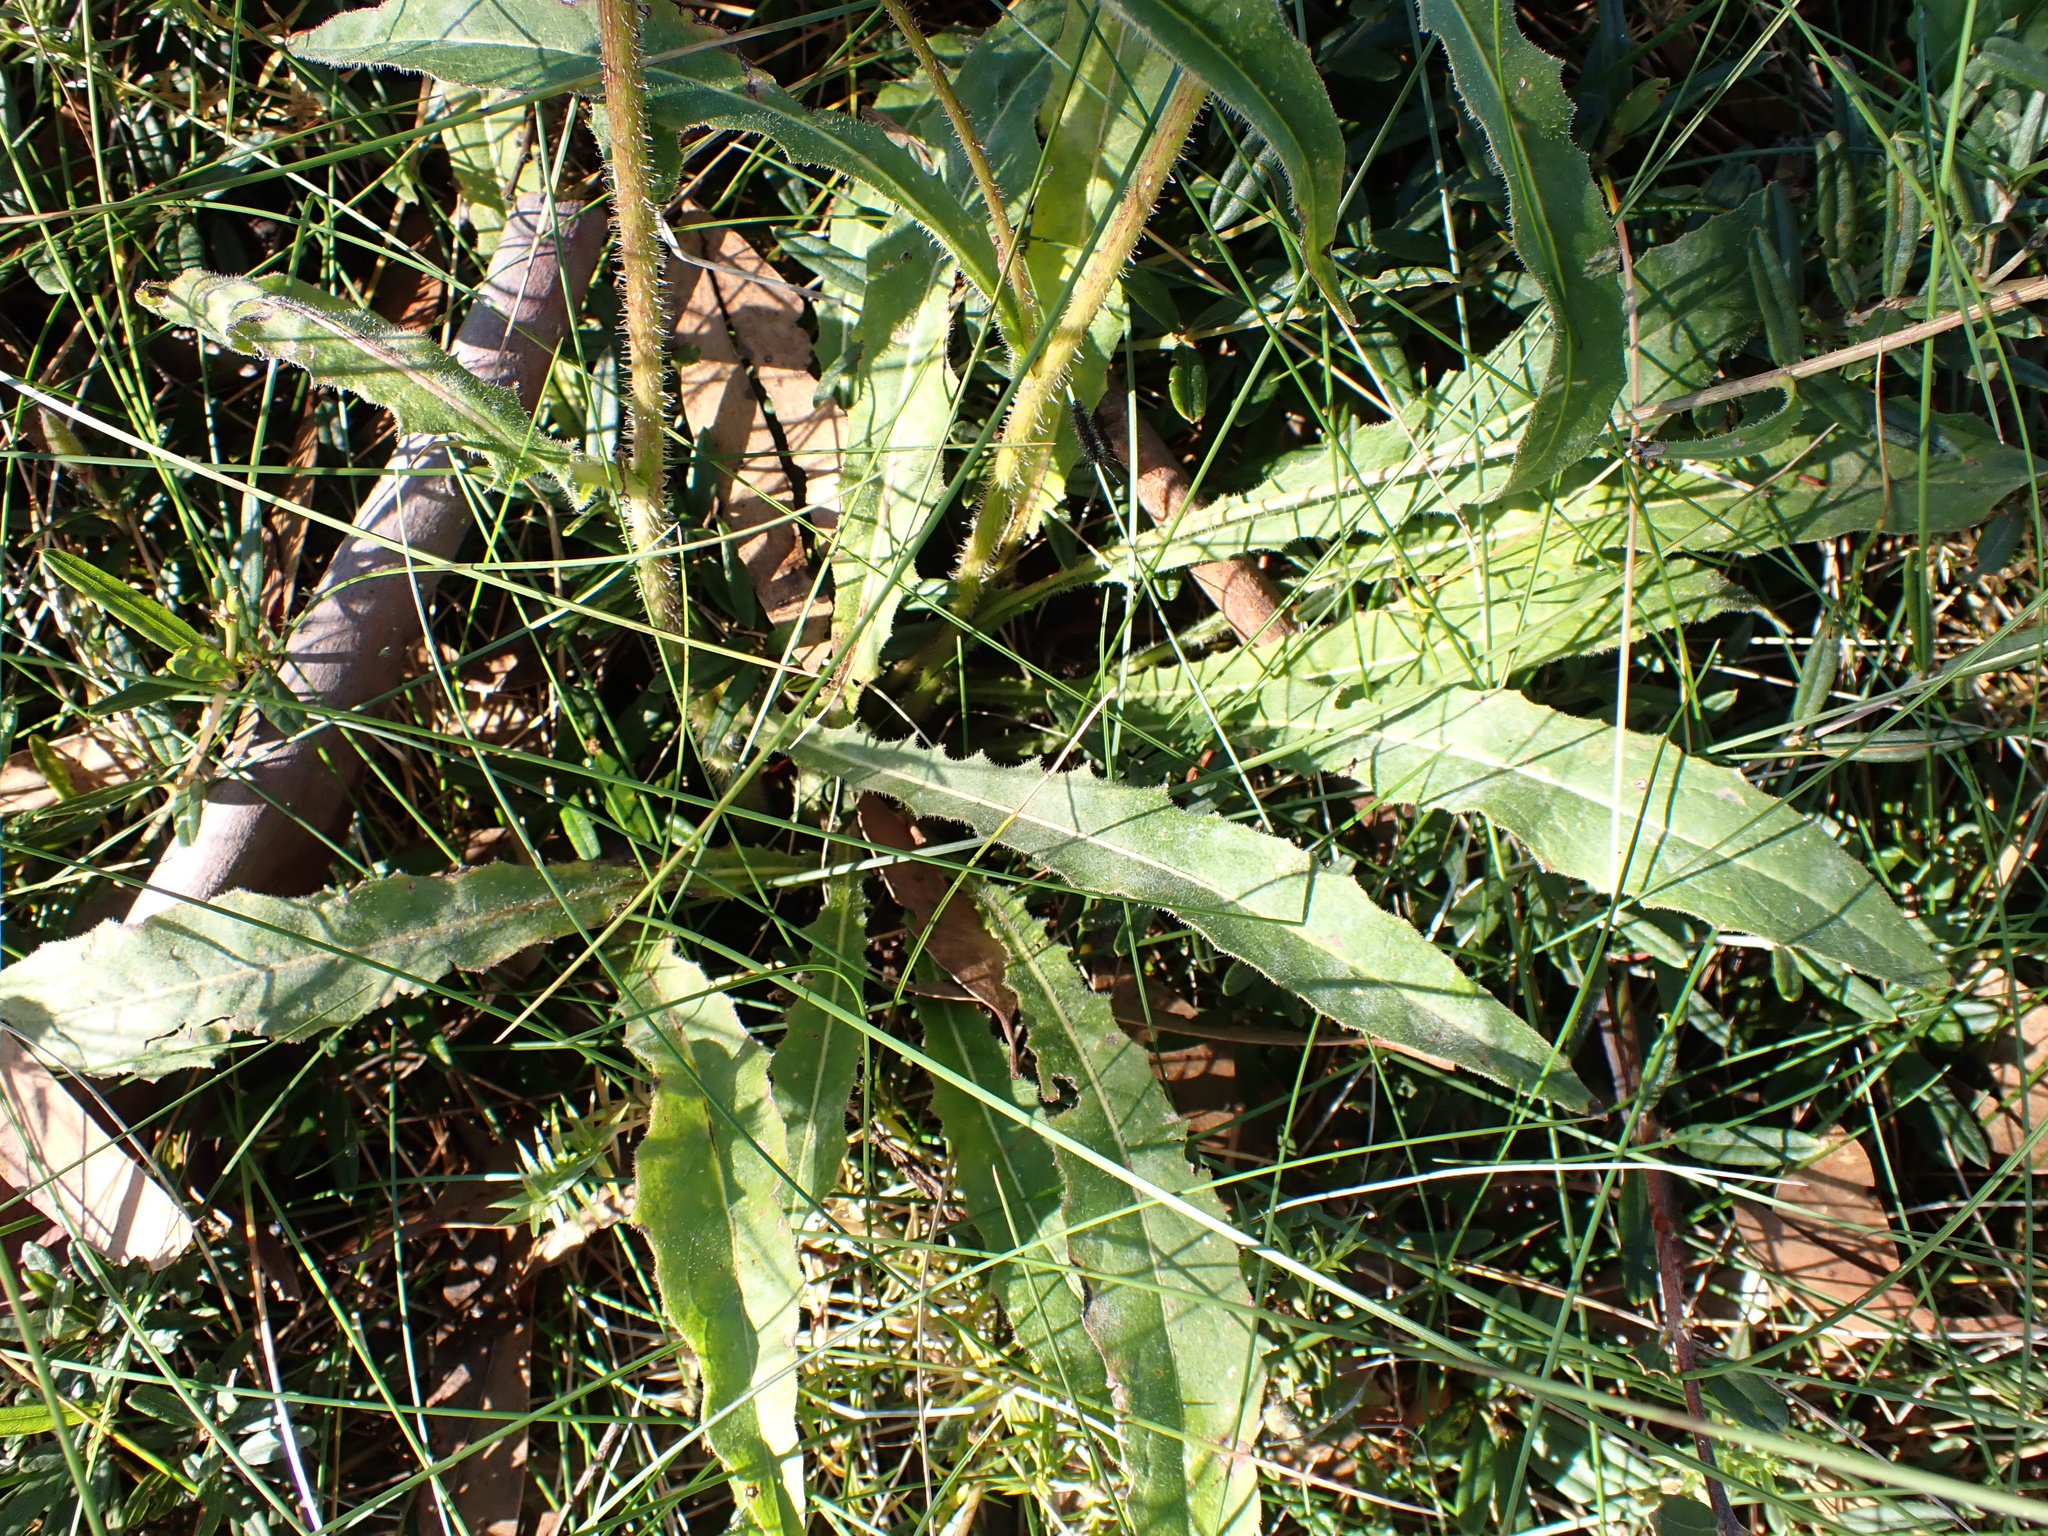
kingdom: Plantae
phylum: Tracheophyta
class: Magnoliopsida
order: Asterales
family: Asteraceae
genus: Picris
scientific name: Picris angustifolia
